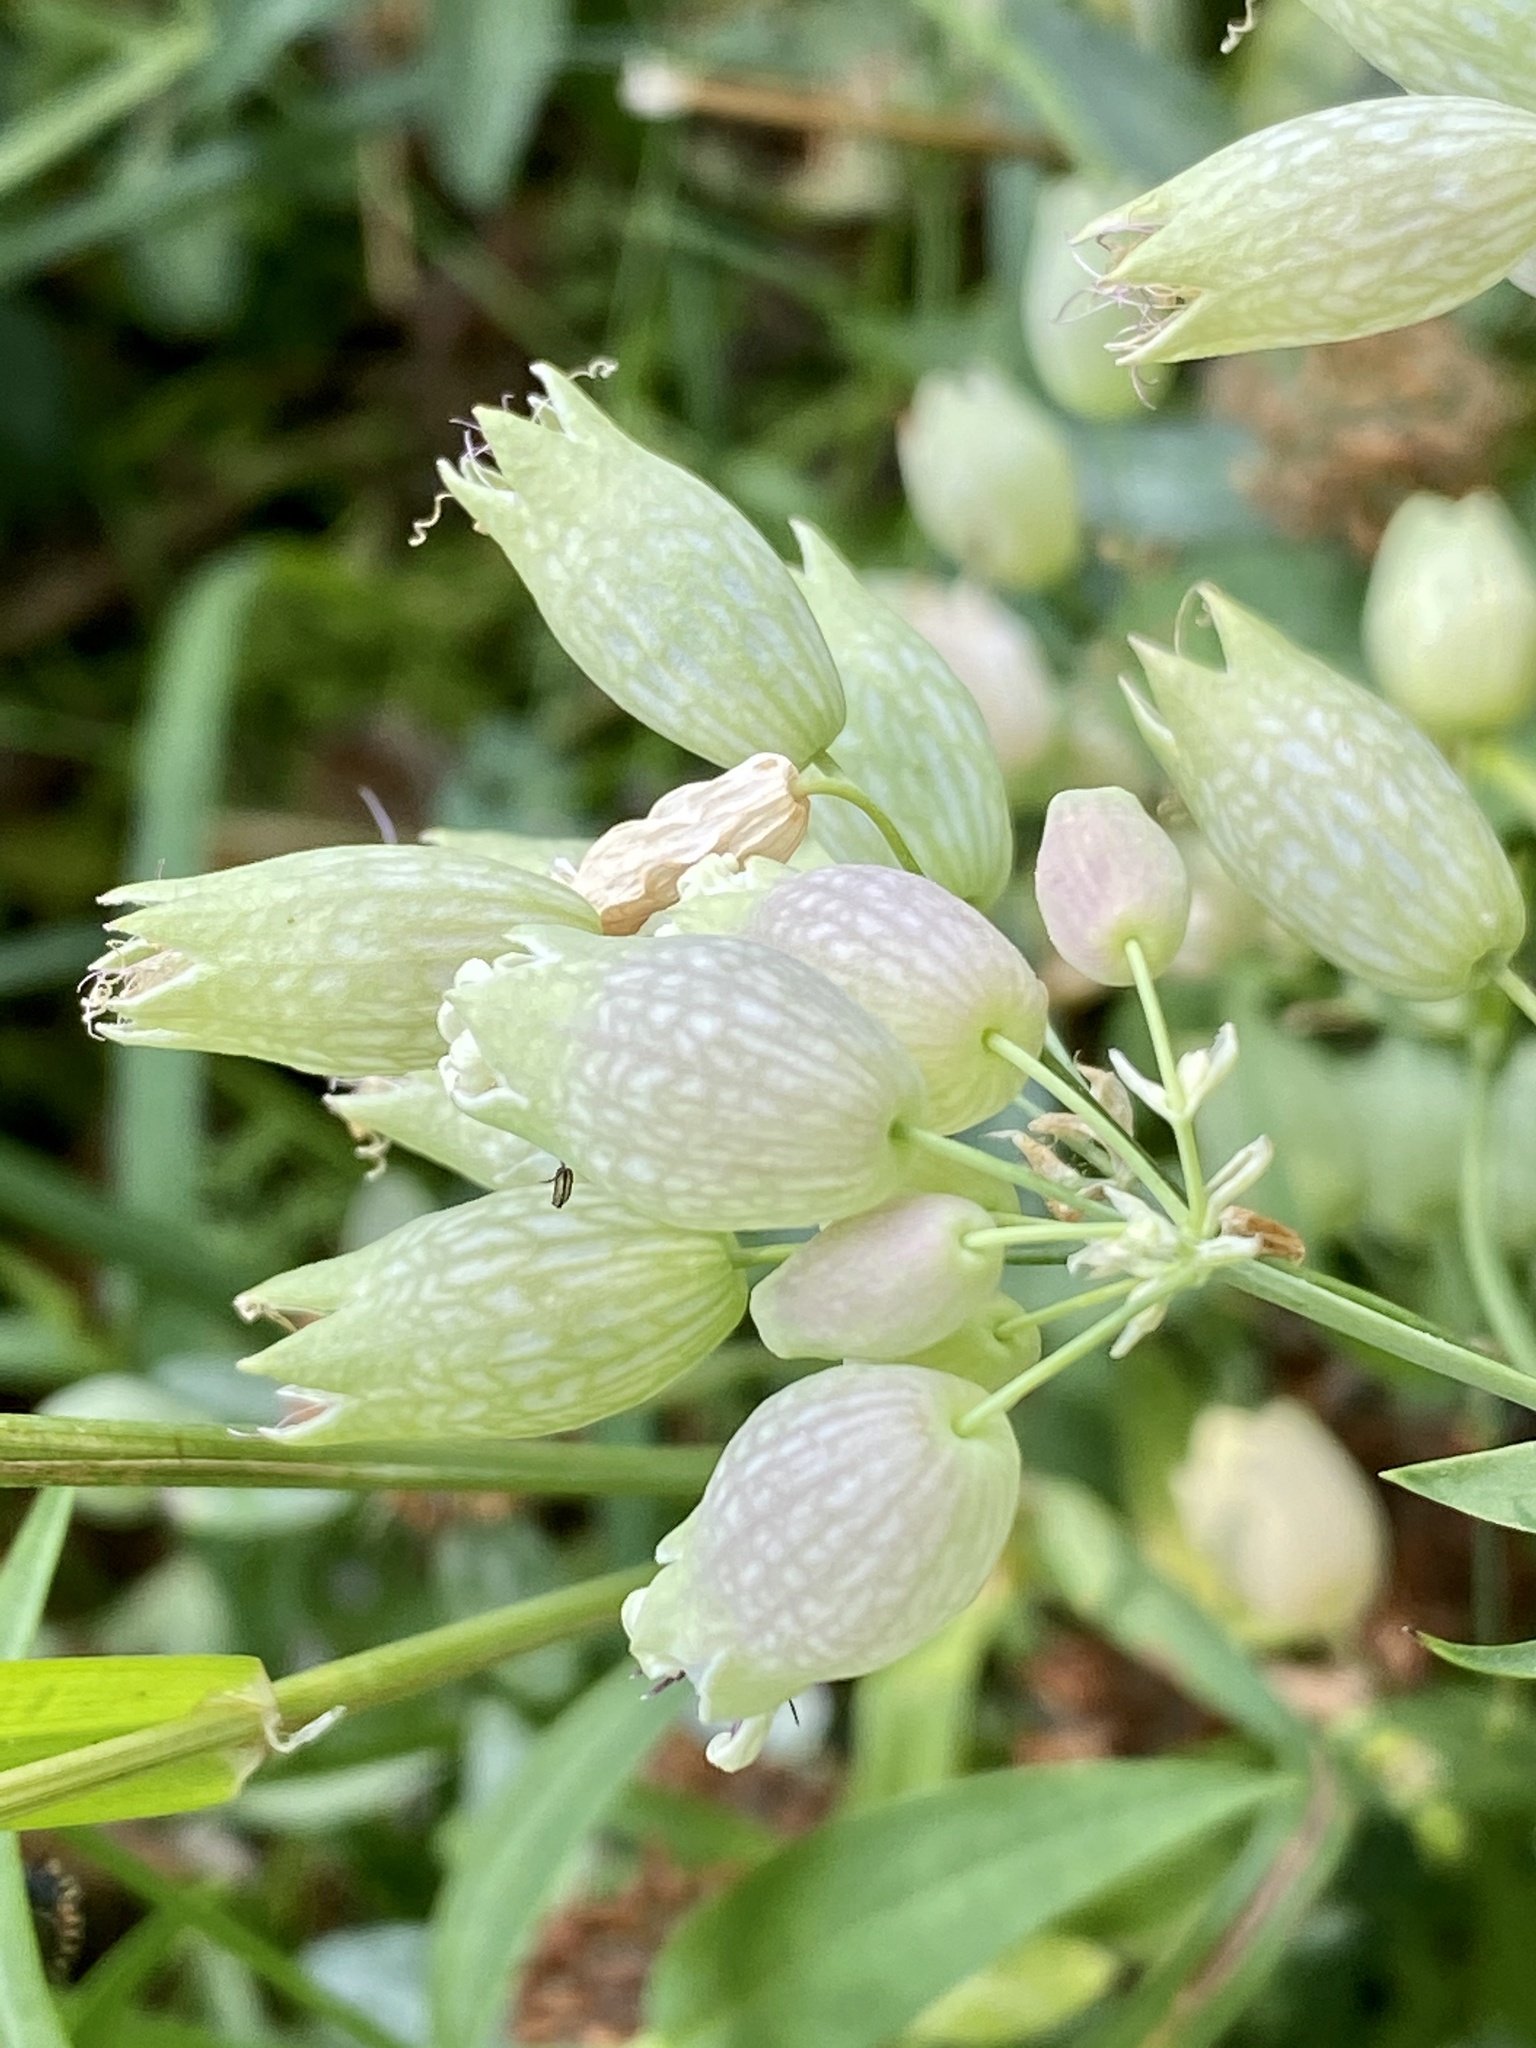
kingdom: Plantae
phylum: Tracheophyta
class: Magnoliopsida
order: Caryophyllales
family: Caryophyllaceae
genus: Silene
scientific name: Silene vulgaris
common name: Bladder campion
